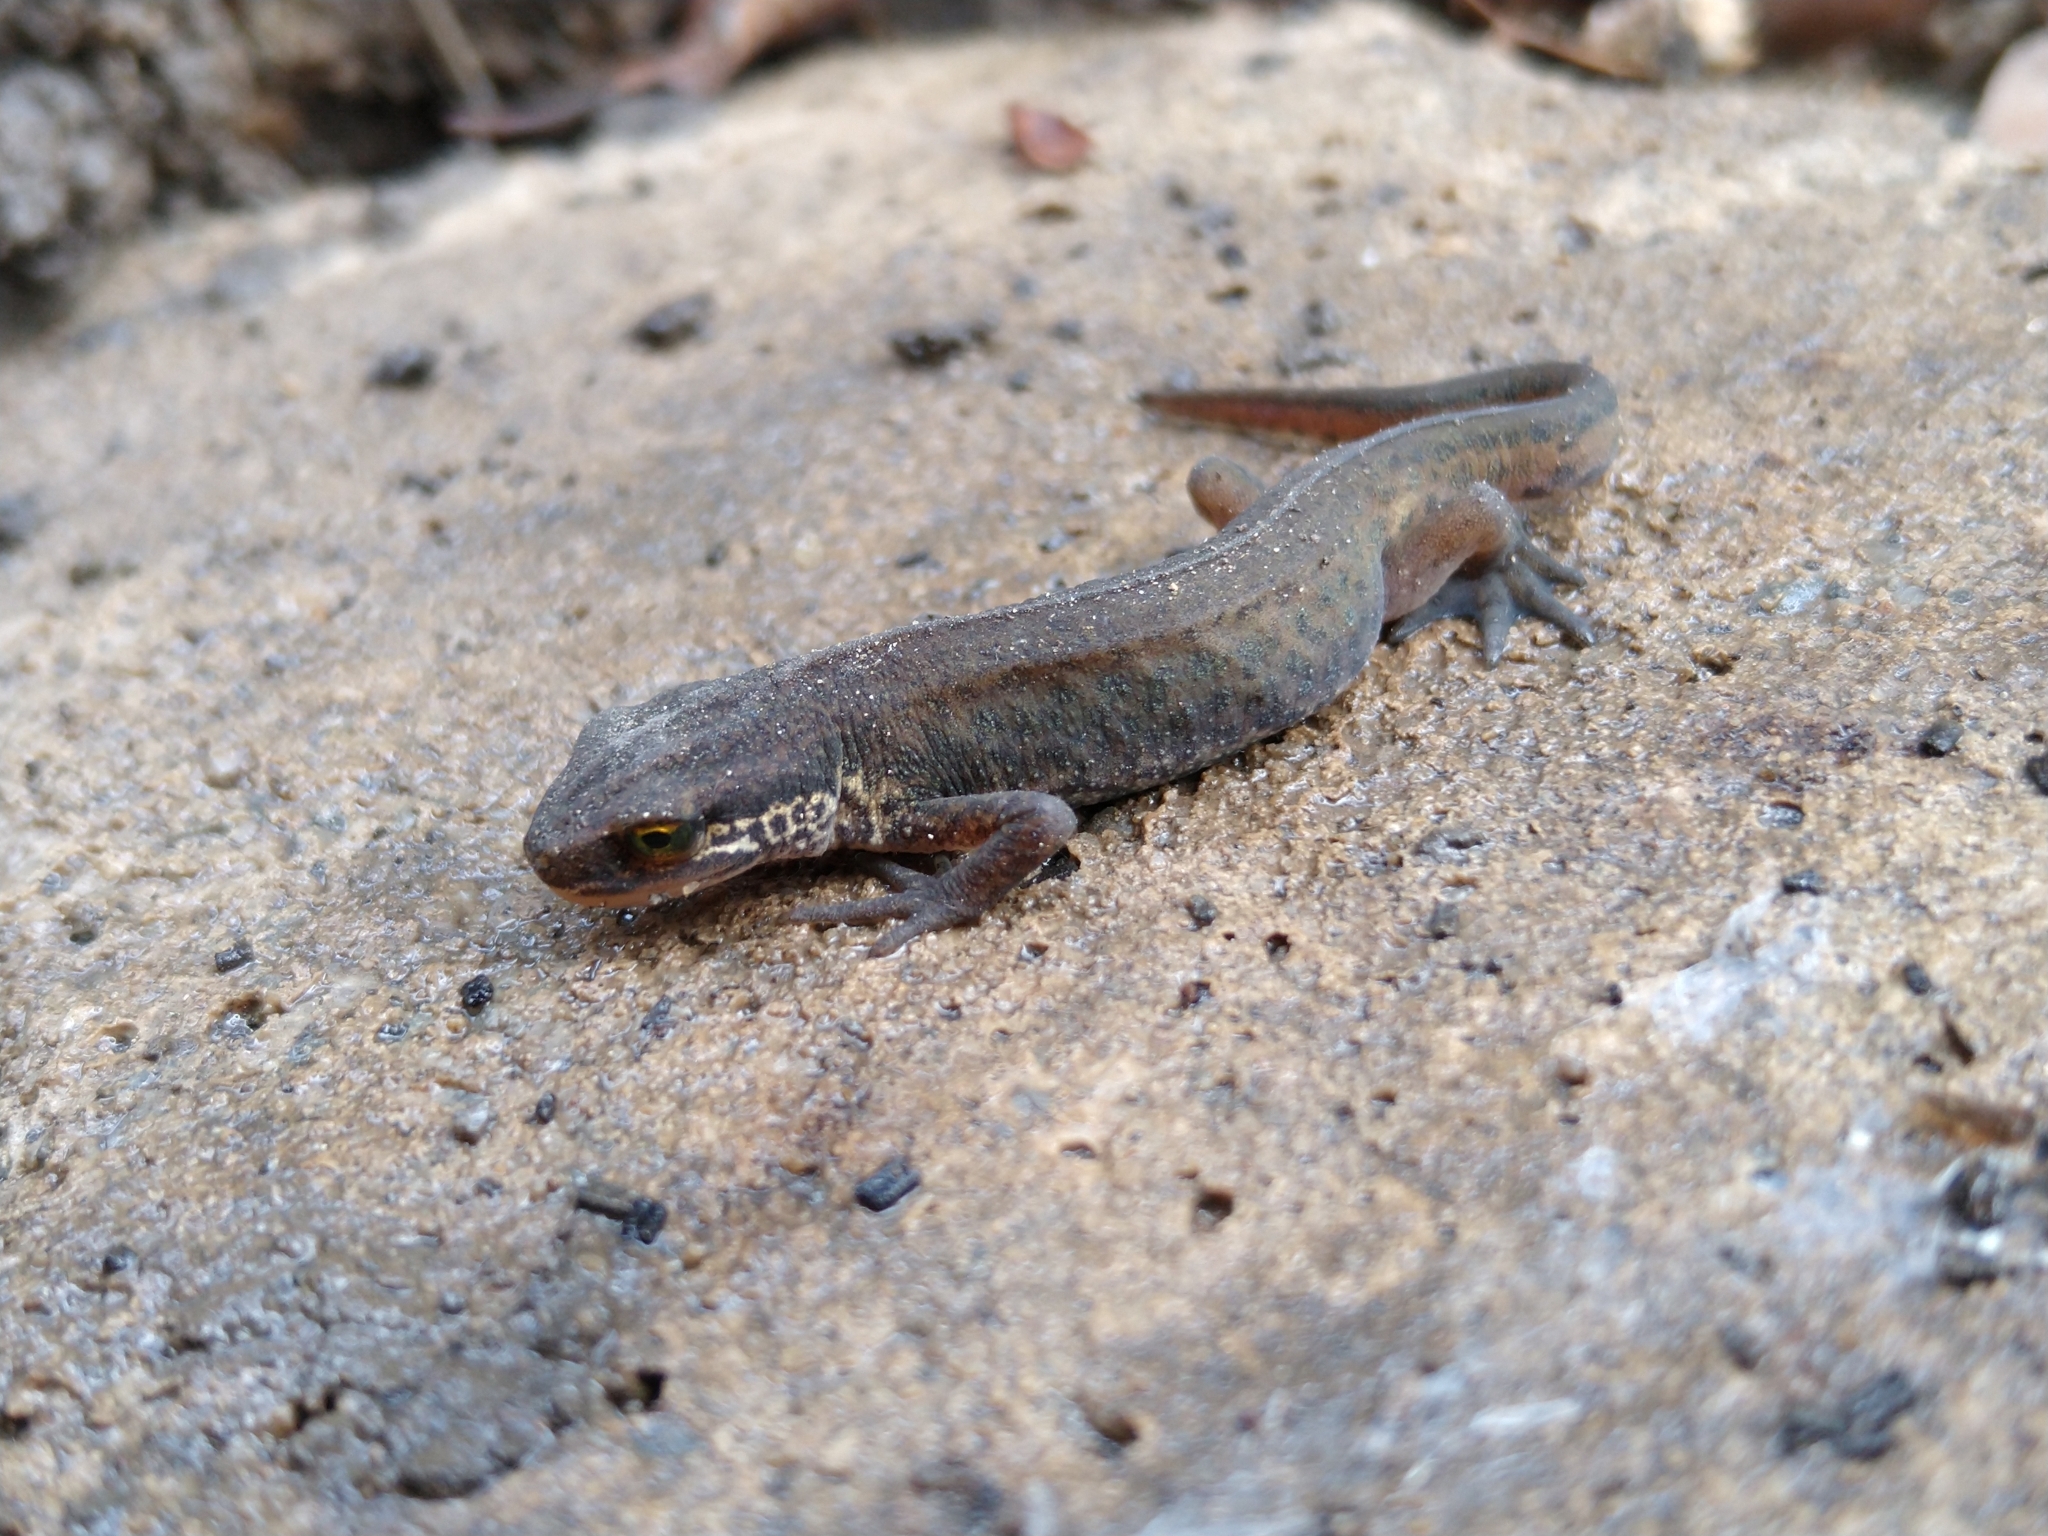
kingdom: Animalia
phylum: Chordata
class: Amphibia
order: Caudata
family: Salamandridae
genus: Lissotriton
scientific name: Lissotriton vulgaris
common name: Smooth newt
